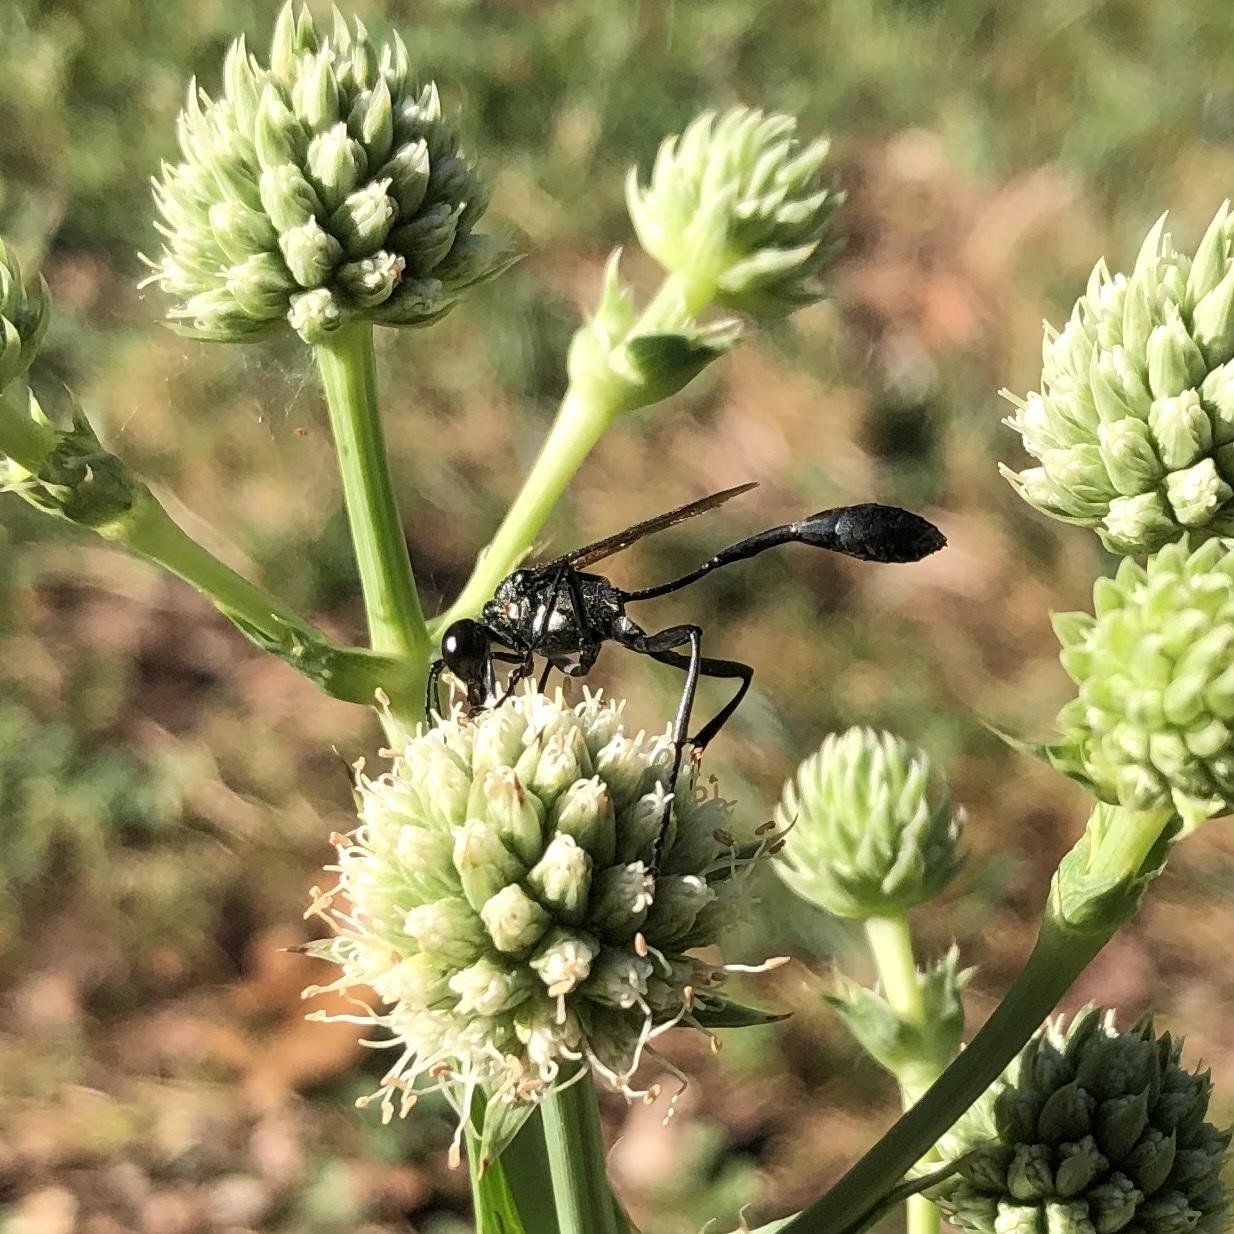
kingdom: Animalia
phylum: Arthropoda
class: Insecta
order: Hymenoptera
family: Sphecidae
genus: Eremnophila
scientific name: Eremnophila aureonotata
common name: Gold-marked thread-waisted wasp
